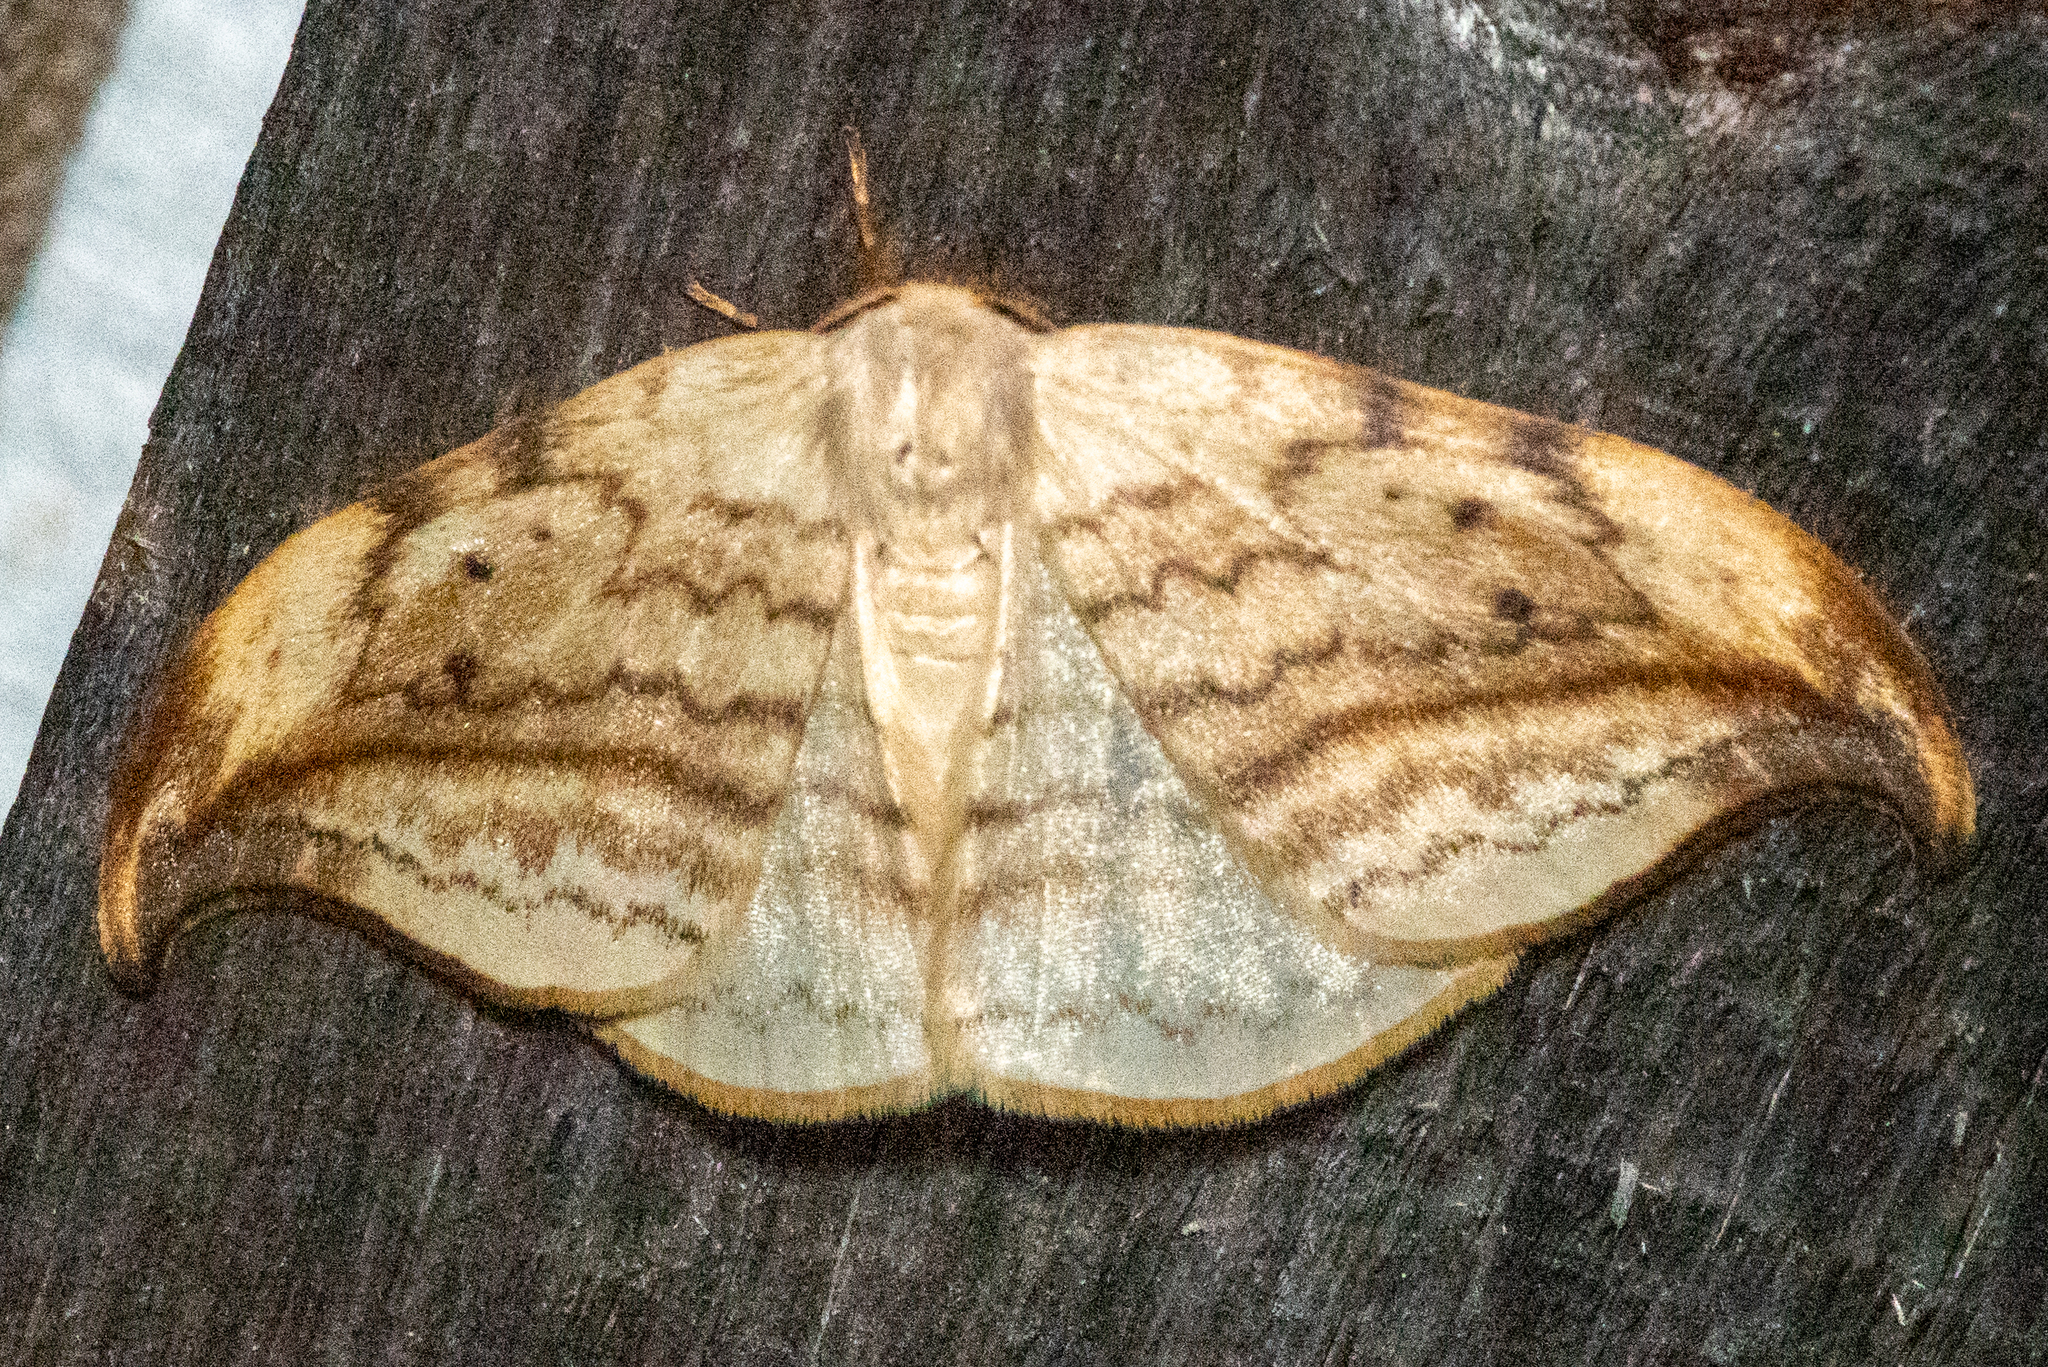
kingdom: Animalia
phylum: Arthropoda
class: Insecta
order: Lepidoptera
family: Drepanidae
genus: Drepana
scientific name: Drepana arcuata
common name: Arched hooktip moth
